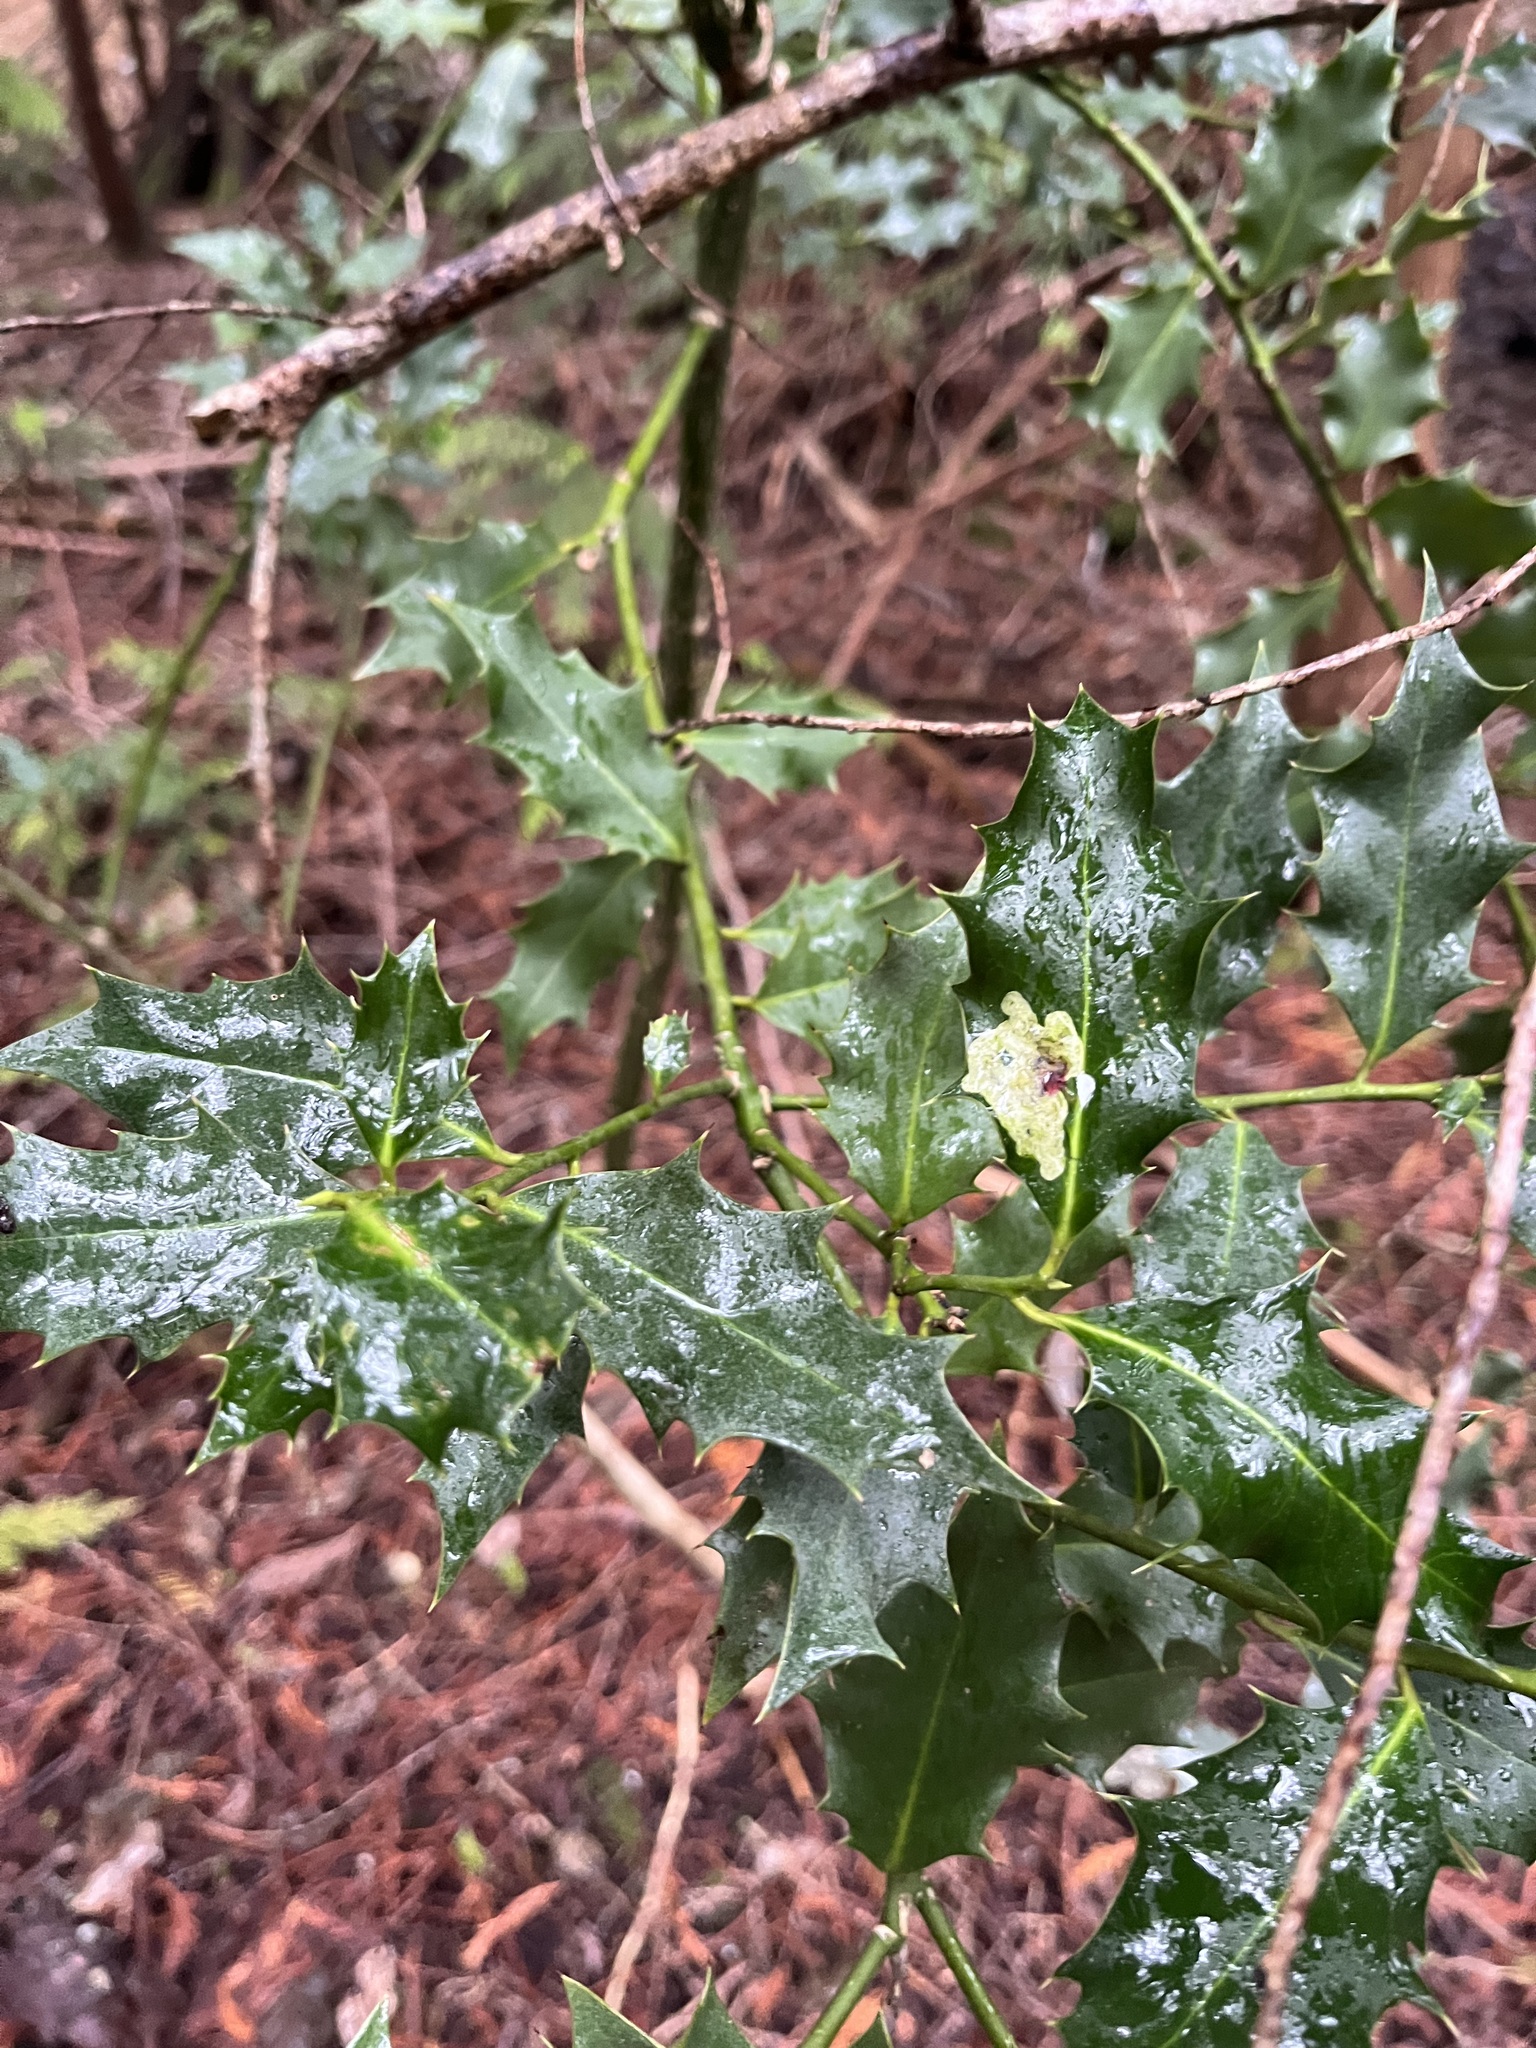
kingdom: Plantae
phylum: Tracheophyta
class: Magnoliopsida
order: Aquifoliales
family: Aquifoliaceae
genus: Ilex
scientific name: Ilex aquifolium
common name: English holly
